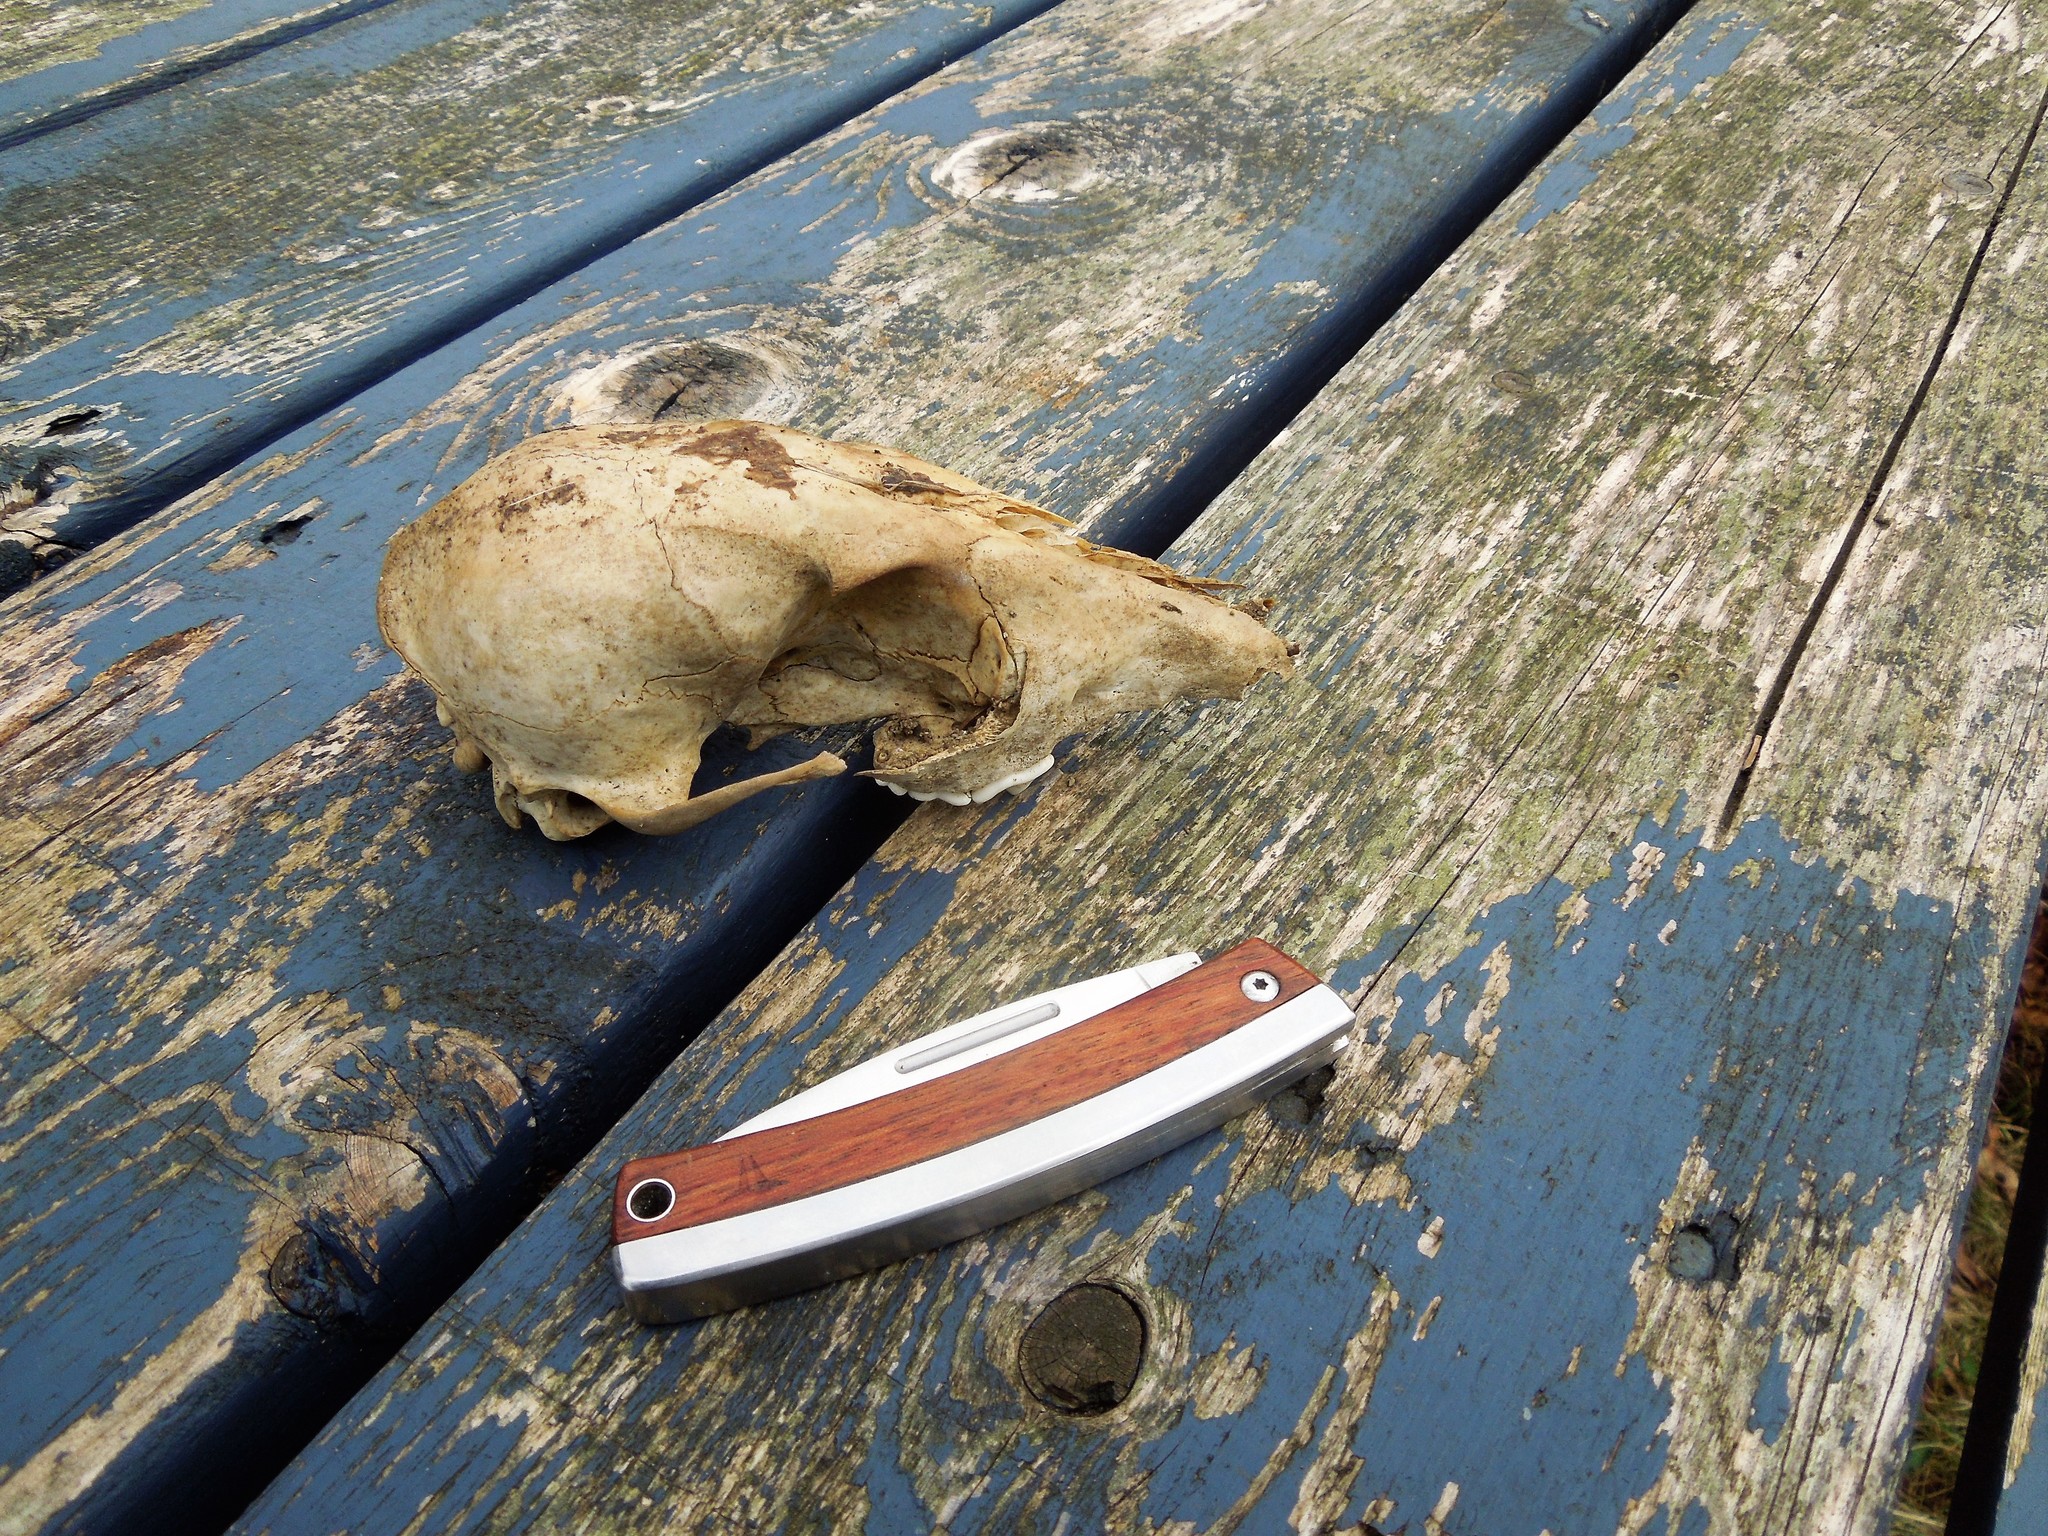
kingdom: Animalia
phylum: Chordata
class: Mammalia
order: Carnivora
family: Canidae
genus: Vulpes
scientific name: Vulpes vulpes
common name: Red fox
